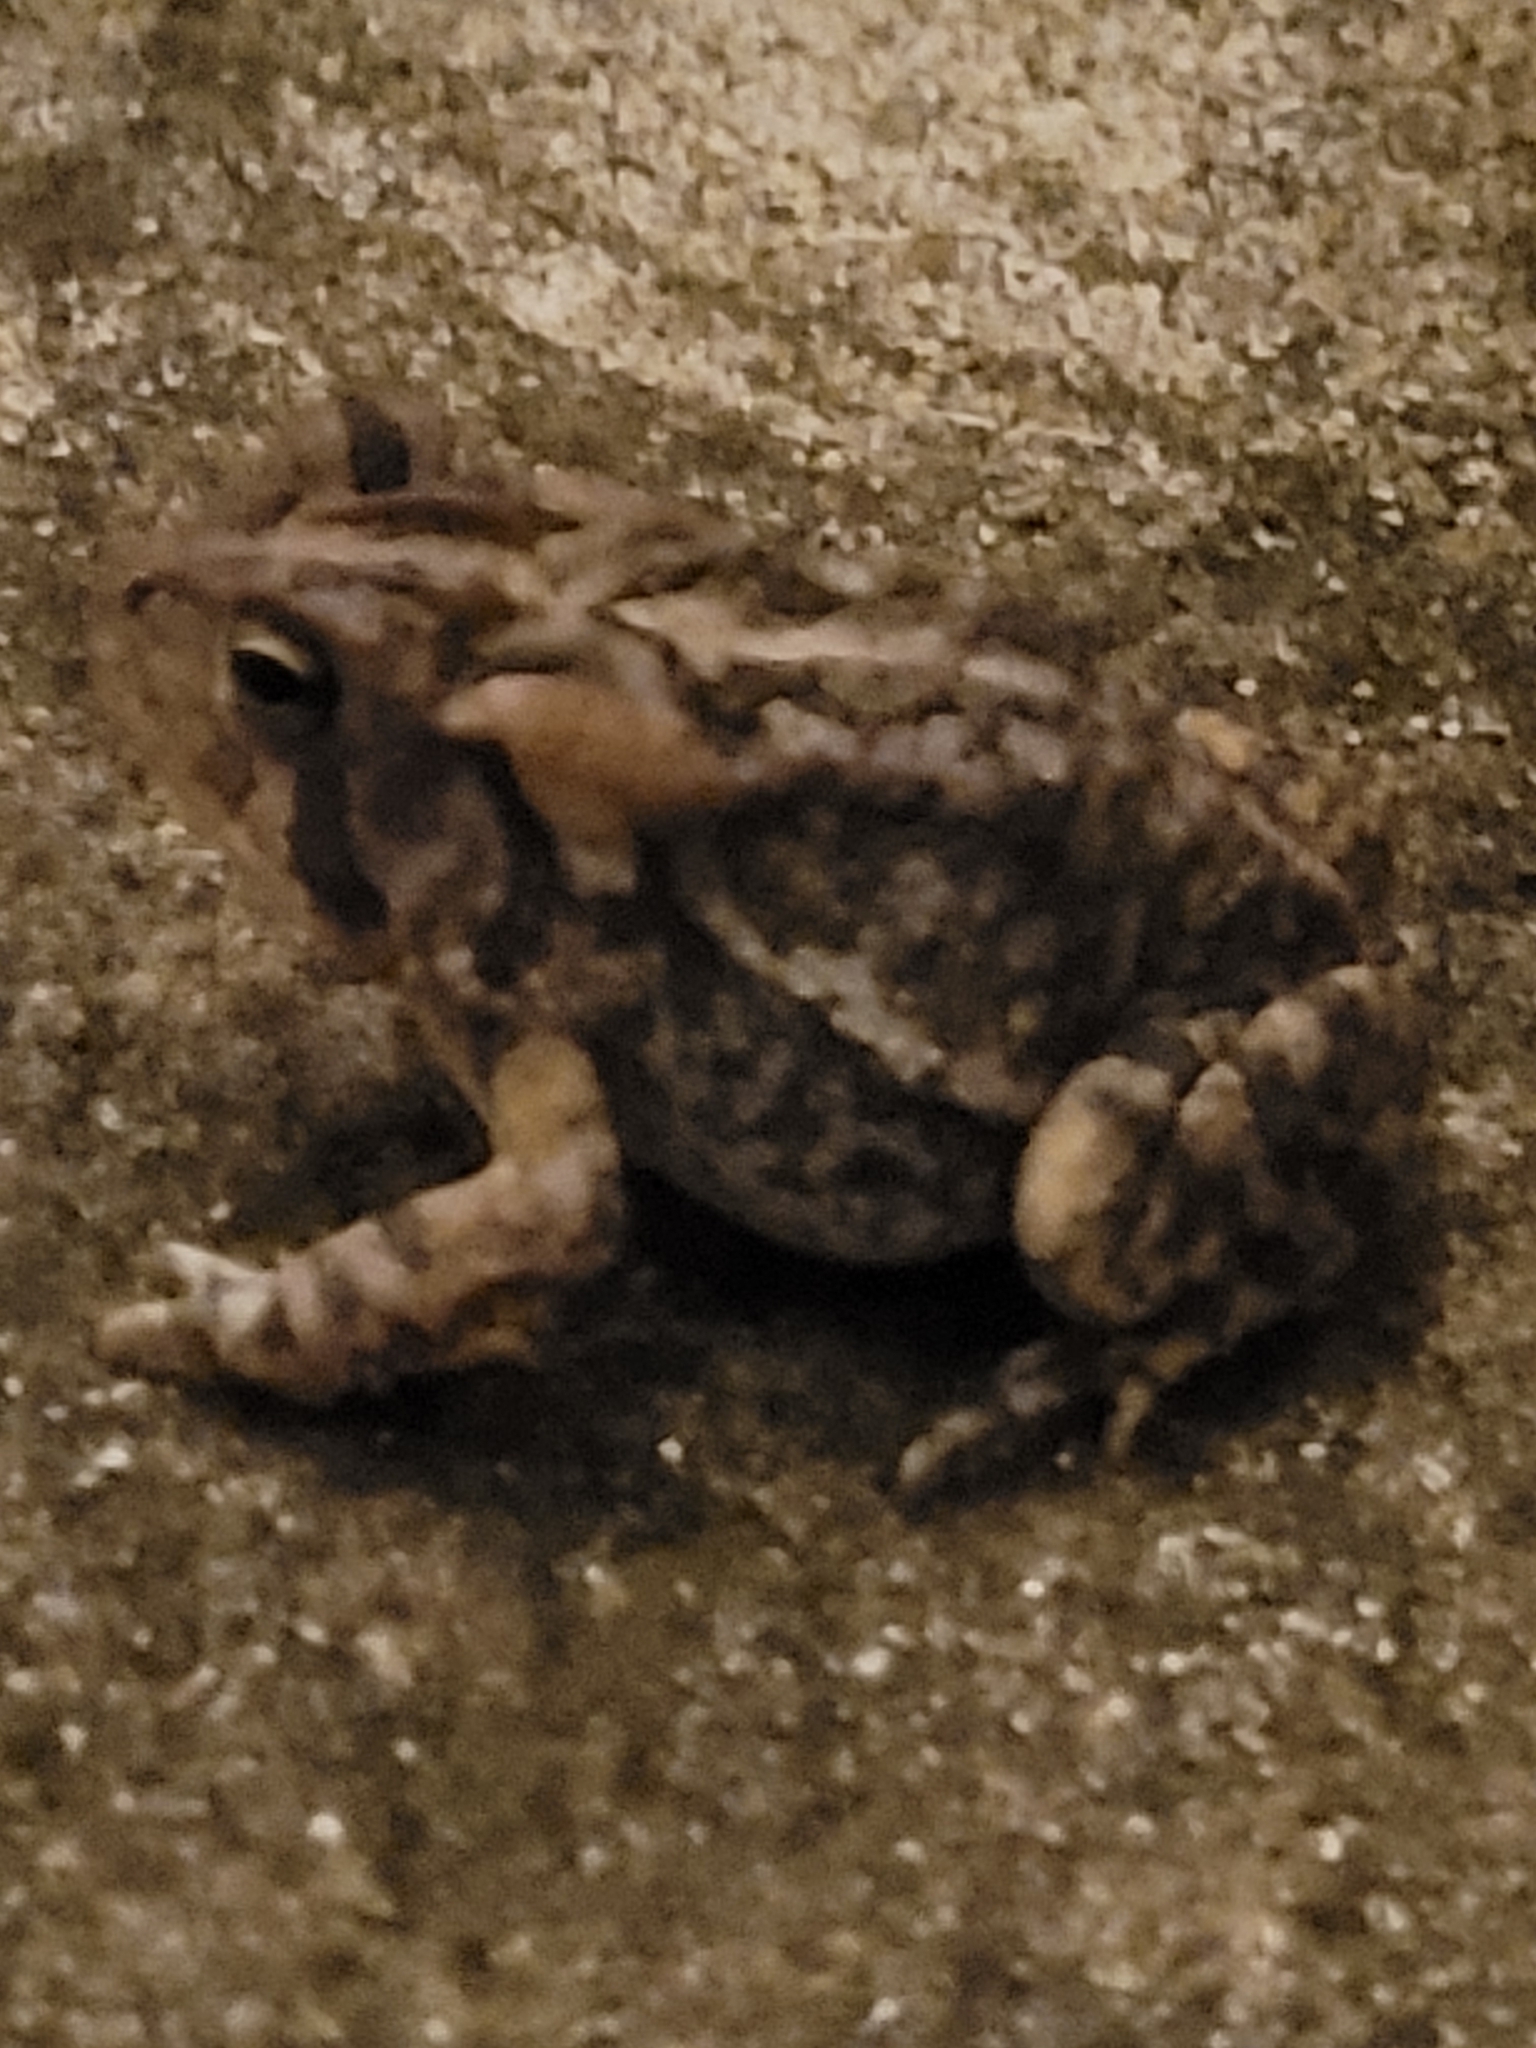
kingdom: Animalia
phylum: Chordata
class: Amphibia
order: Anura
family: Bufonidae
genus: Anaxyrus
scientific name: Anaxyrus terrestris
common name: Southern toad
